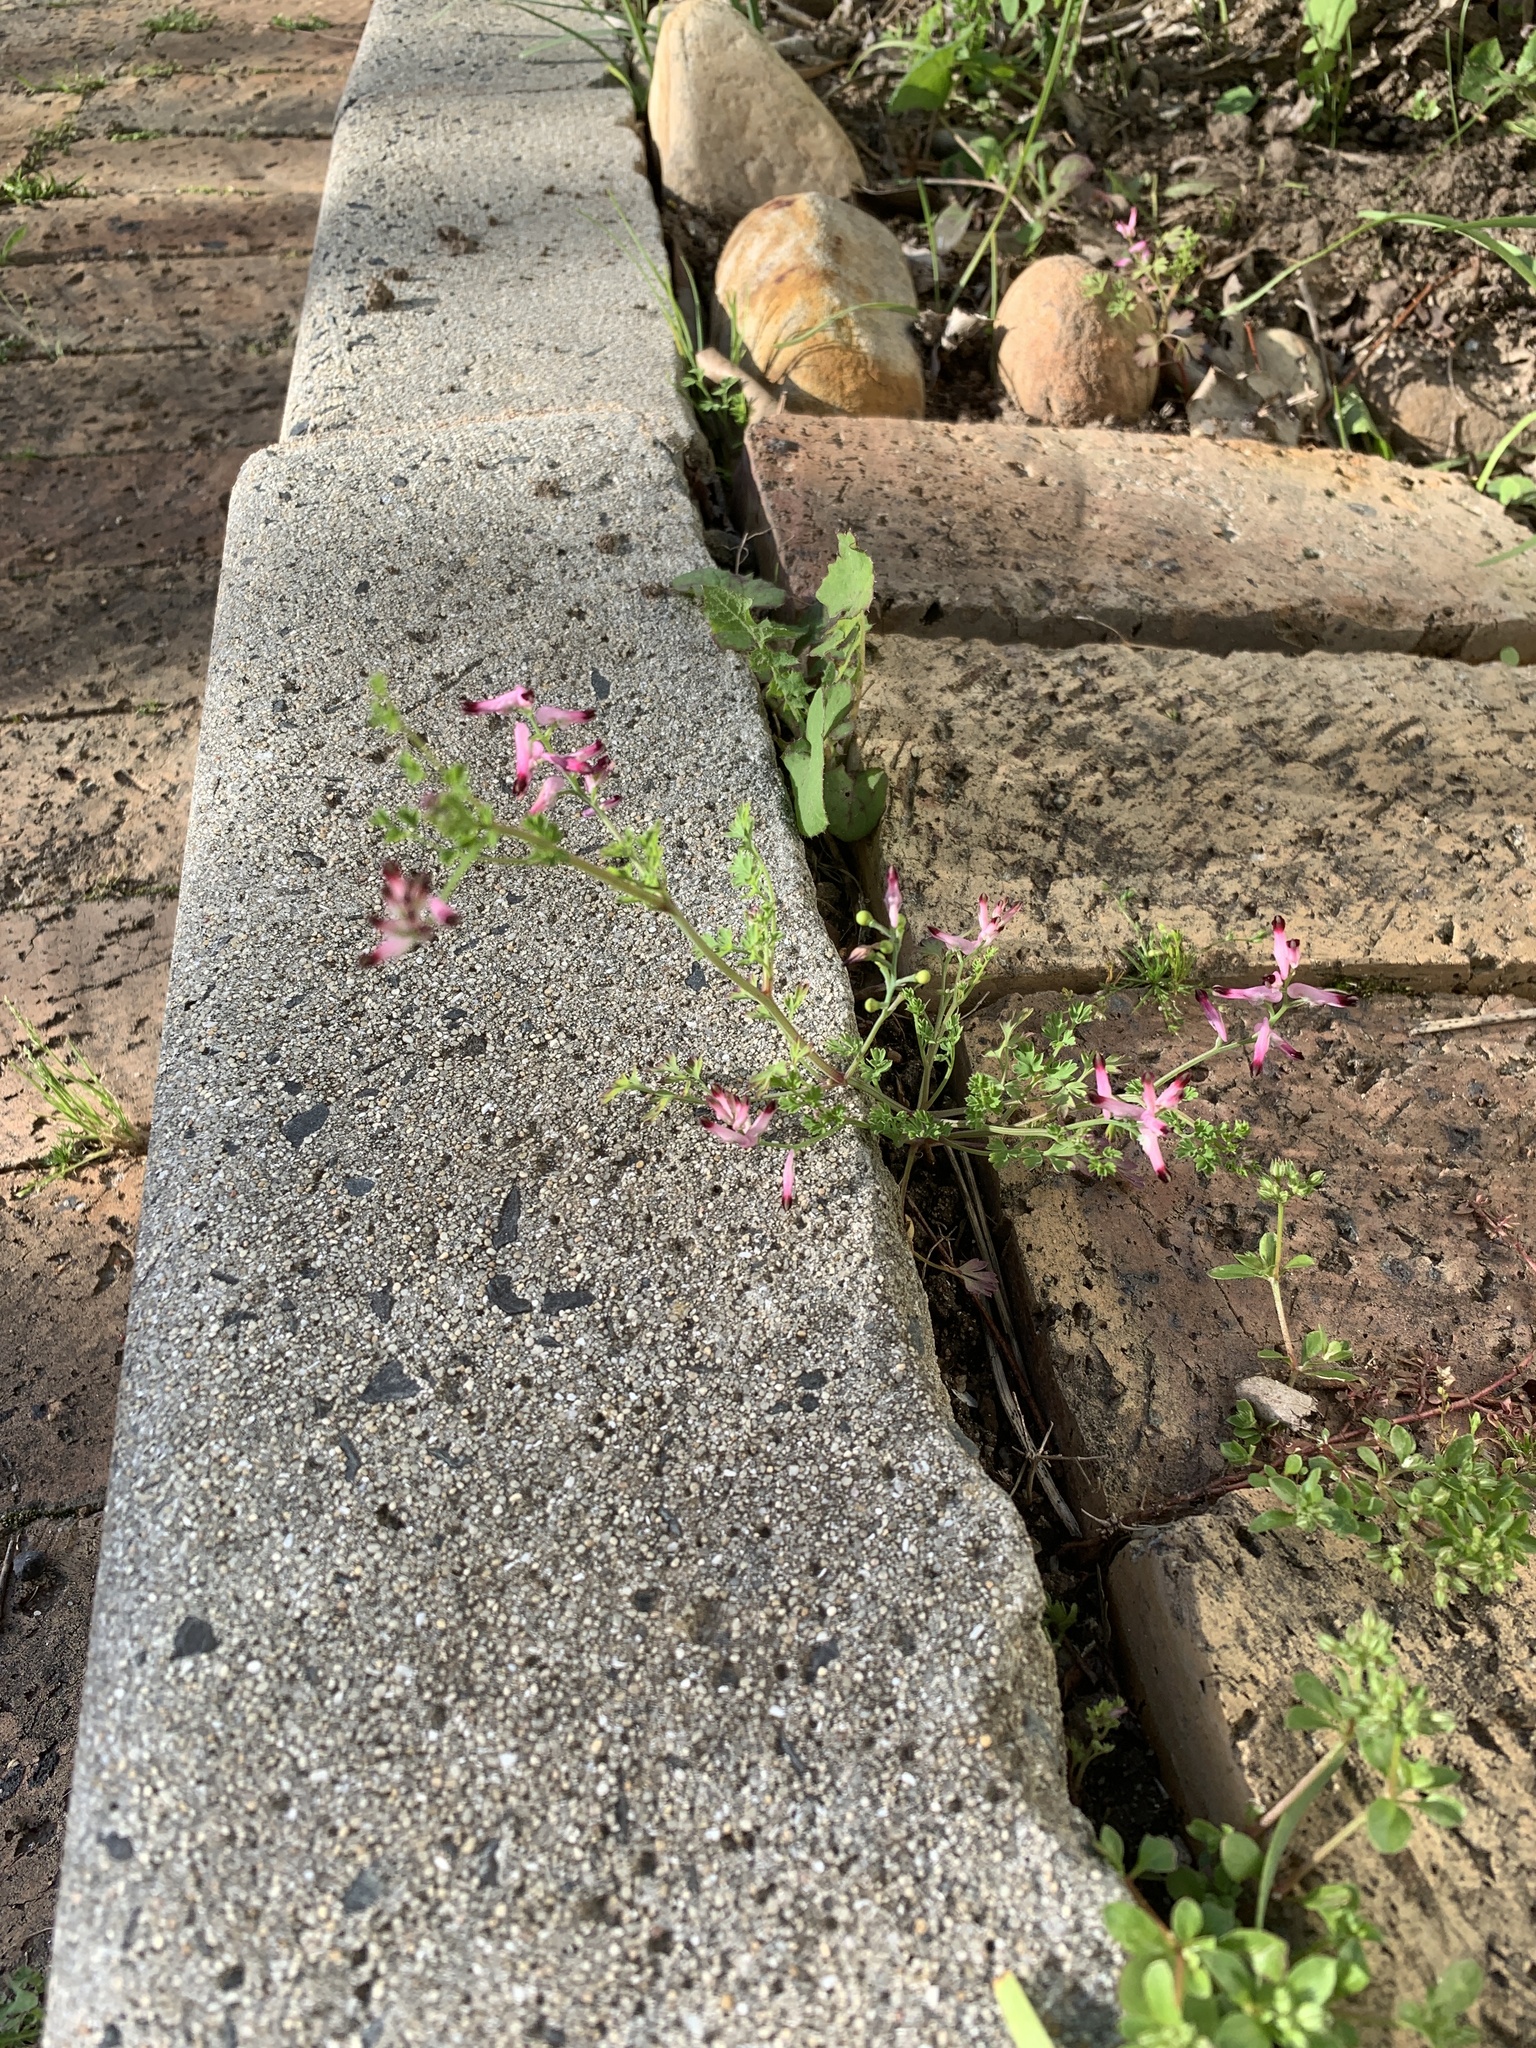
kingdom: Plantae
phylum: Tracheophyta
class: Magnoliopsida
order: Ranunculales
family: Papaveraceae
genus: Fumaria
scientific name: Fumaria muralis
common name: Common ramping-fumitory
